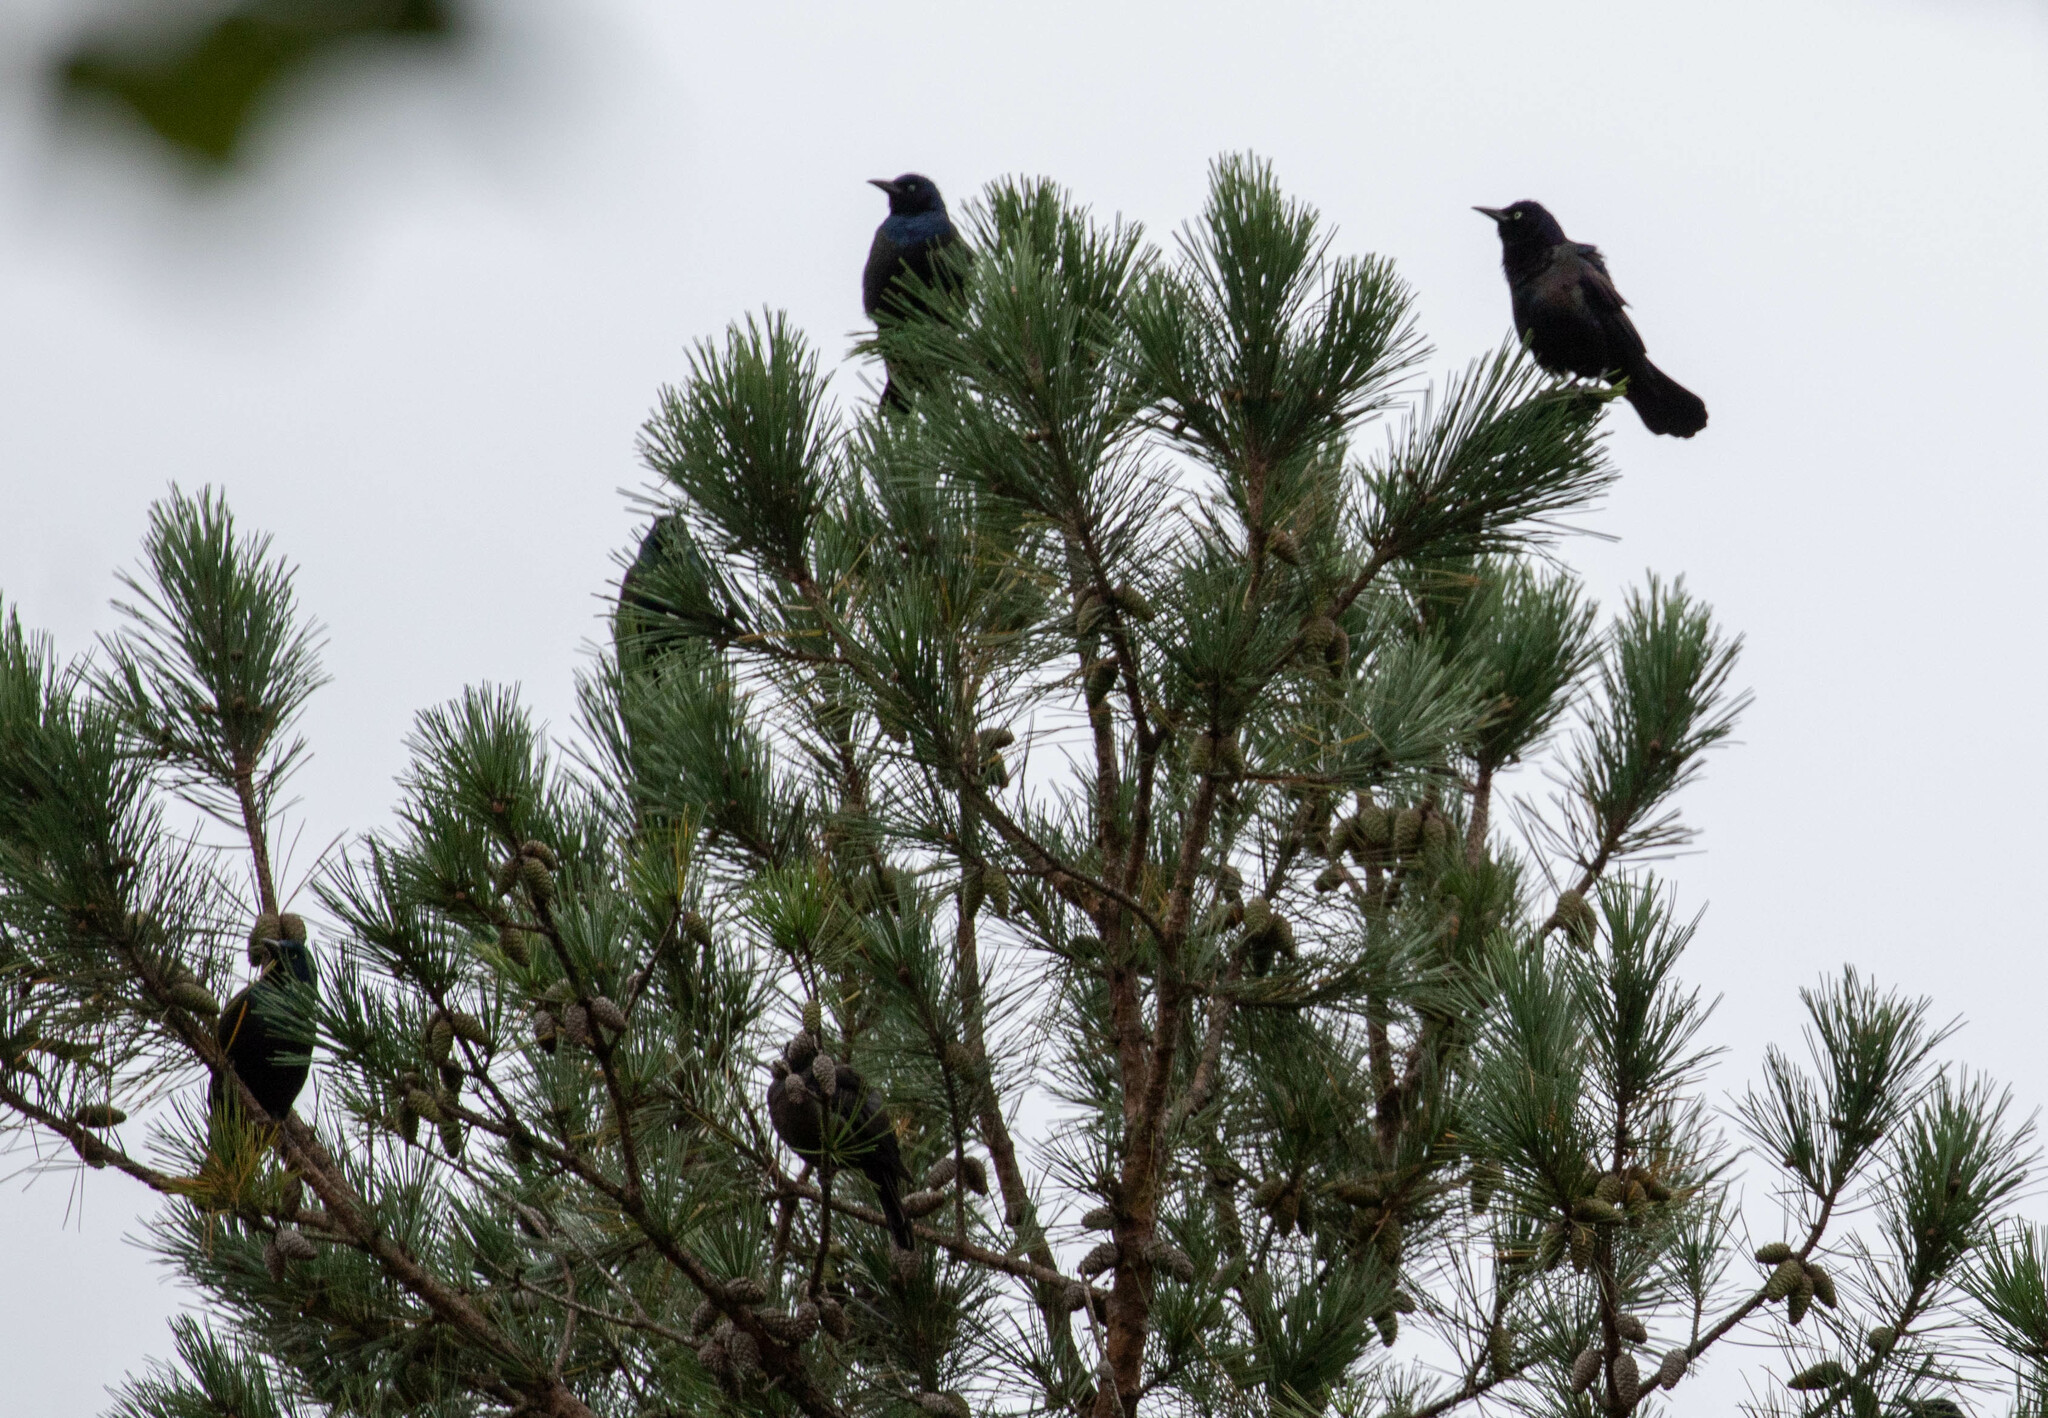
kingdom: Animalia
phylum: Chordata
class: Aves
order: Passeriformes
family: Icteridae
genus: Quiscalus
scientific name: Quiscalus quiscula
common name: Common grackle
